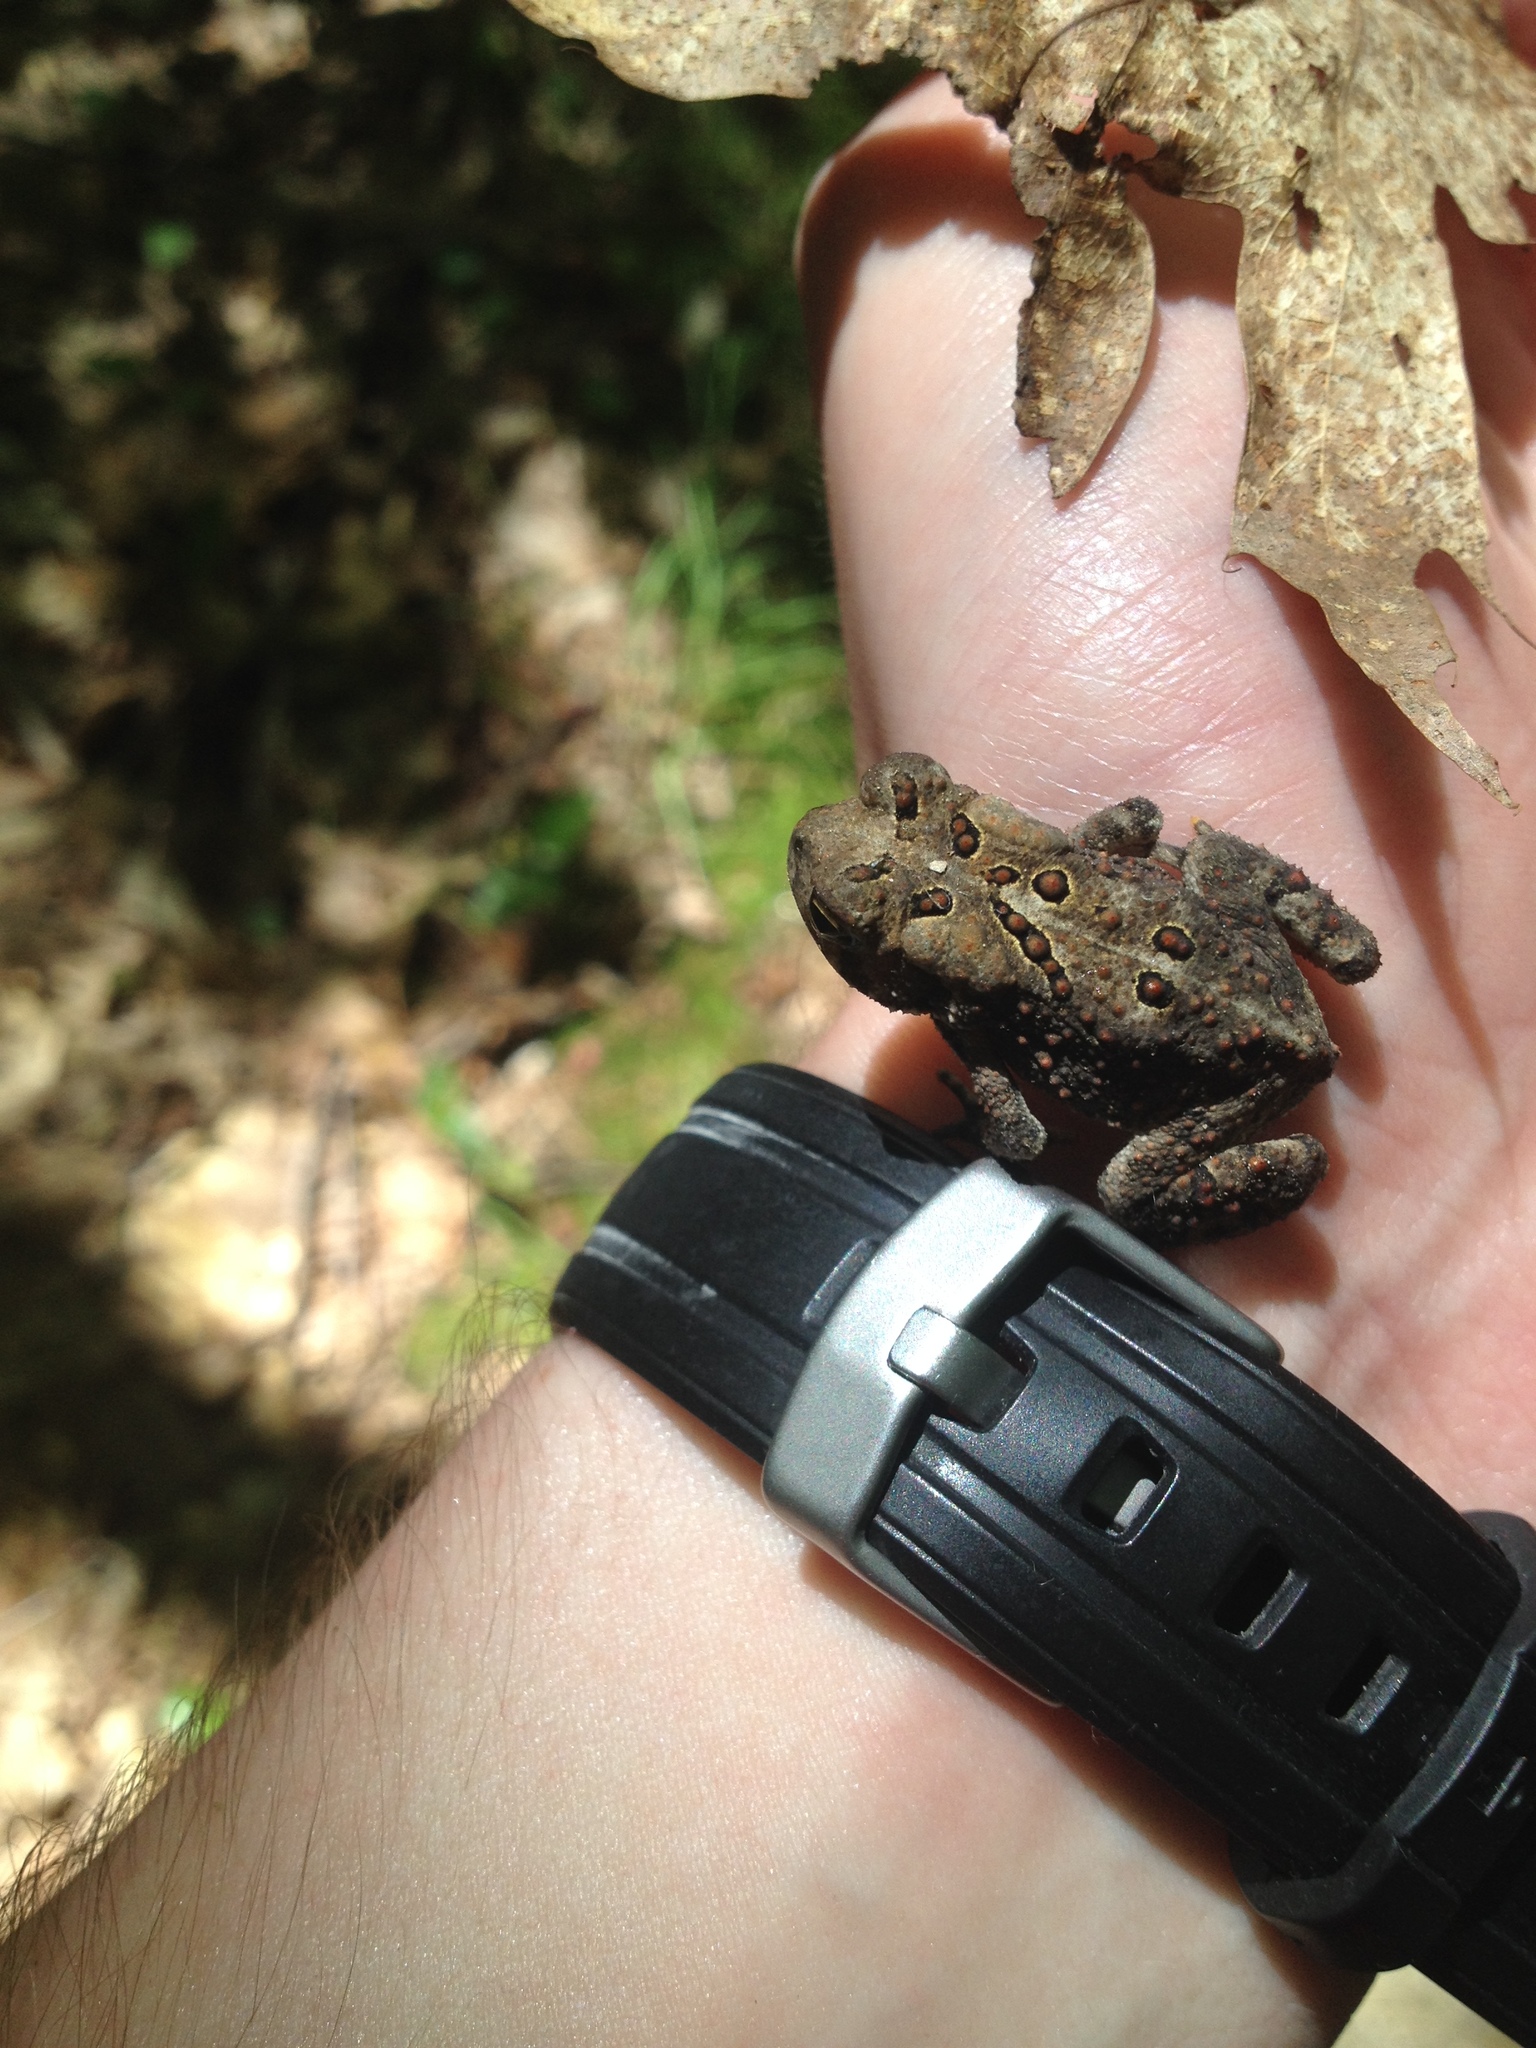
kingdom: Animalia
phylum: Chordata
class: Amphibia
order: Anura
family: Bufonidae
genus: Anaxyrus
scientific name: Anaxyrus americanus
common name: American toad
